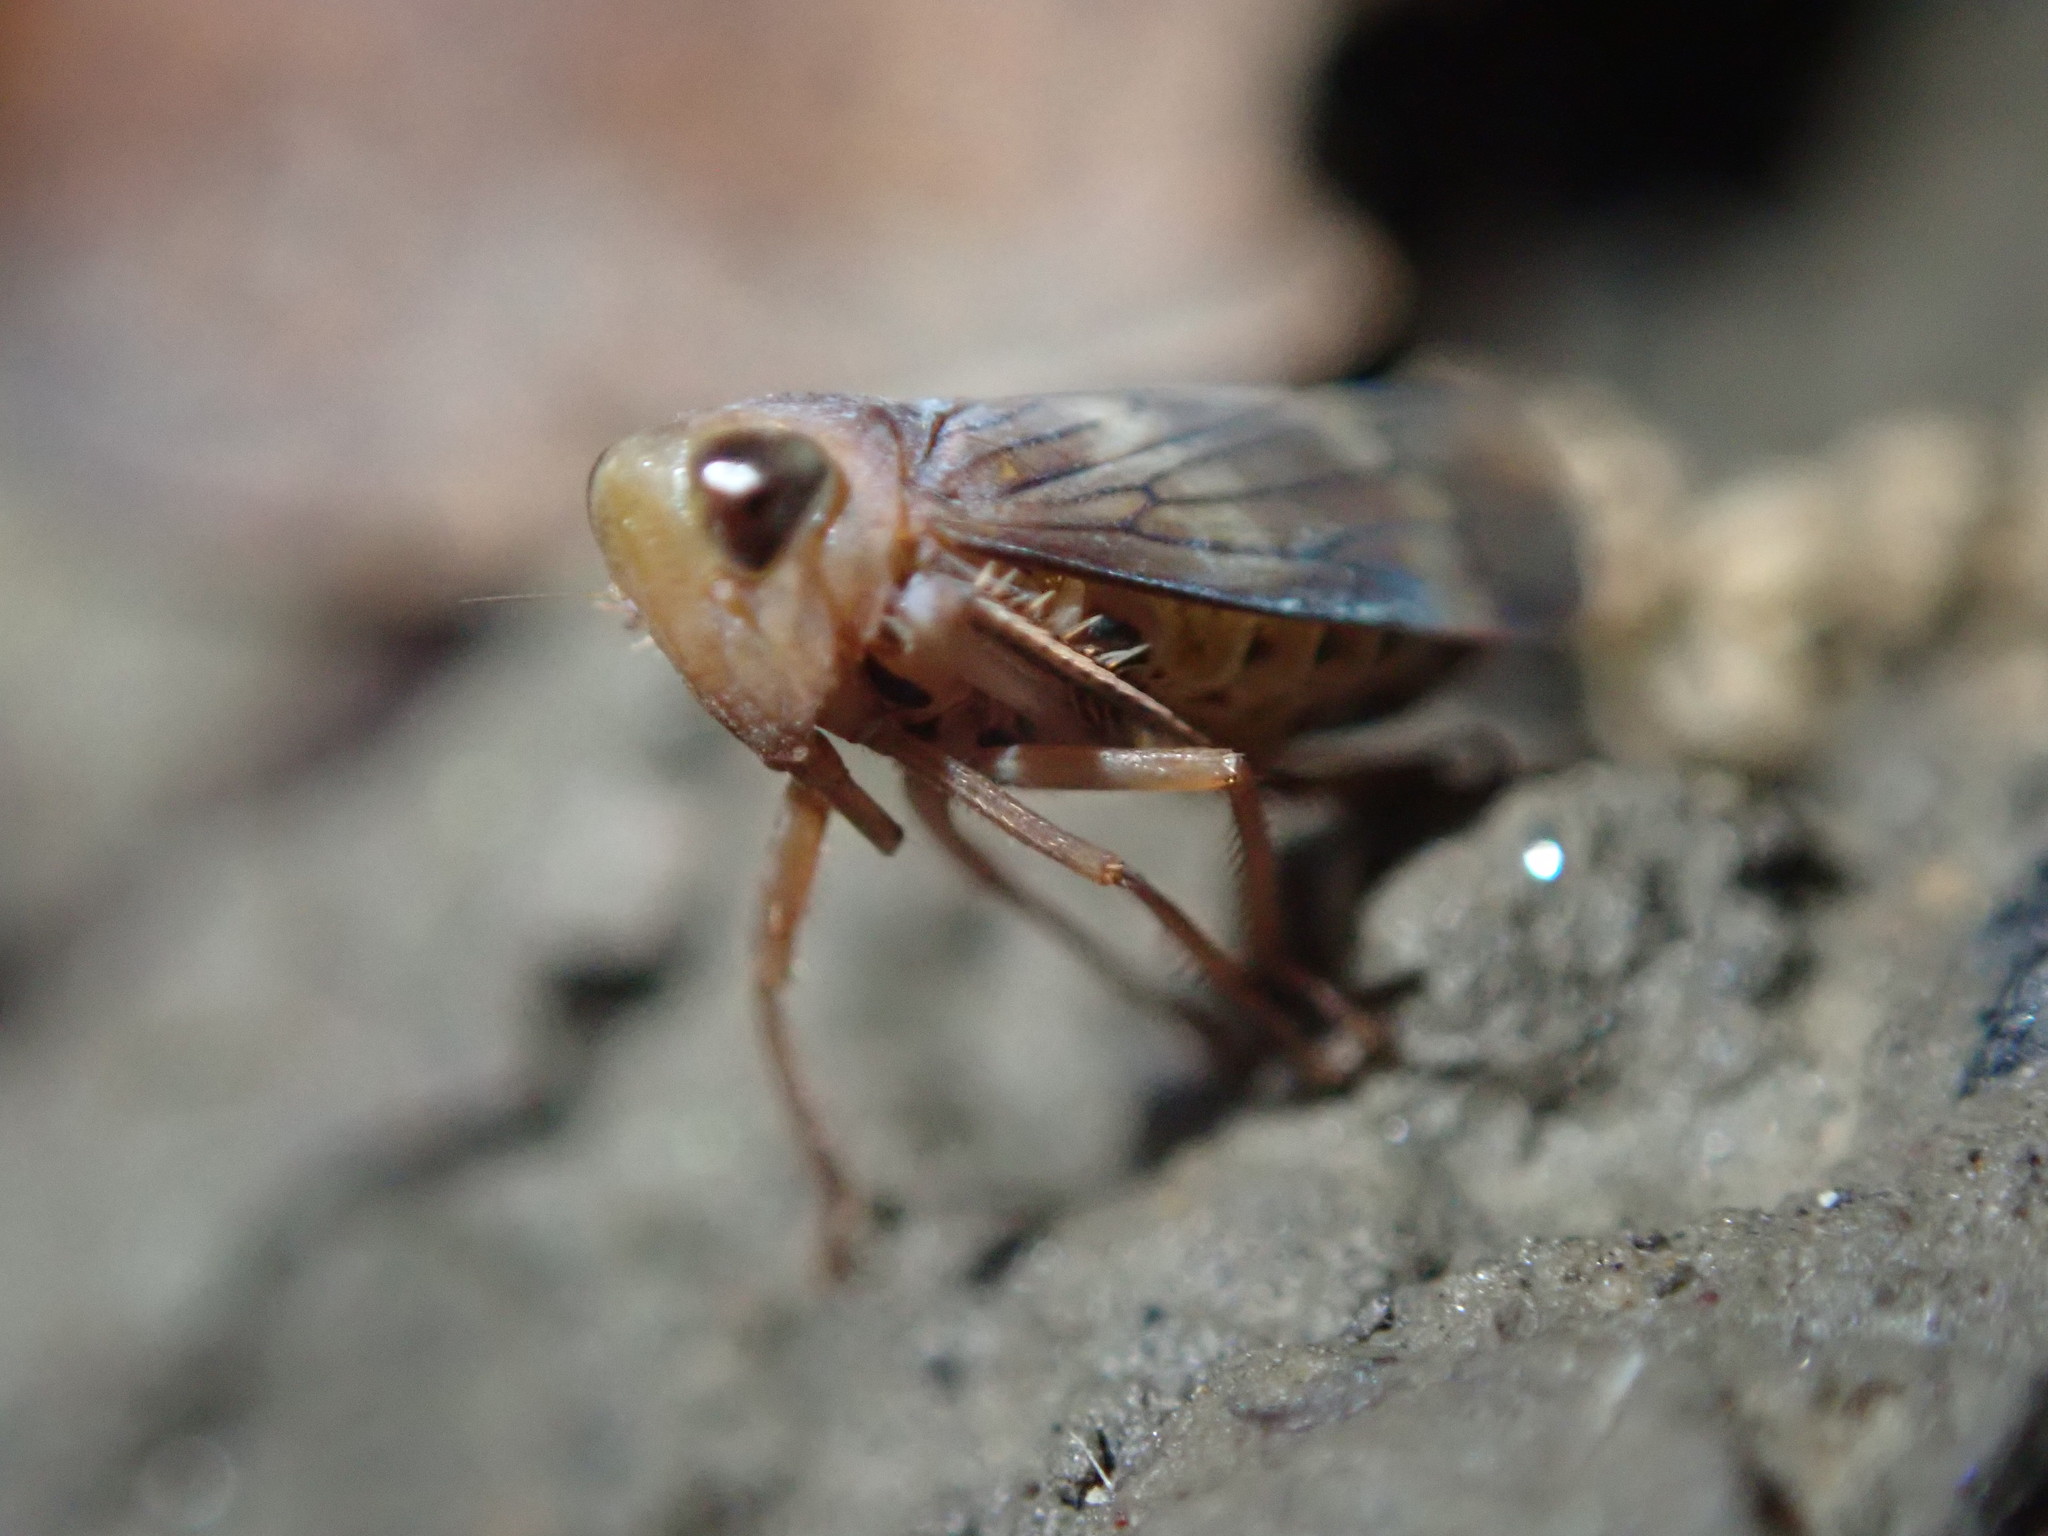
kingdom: Animalia
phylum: Arthropoda
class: Insecta
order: Hemiptera
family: Cicadellidae
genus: Jikradia
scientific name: Jikradia olitoria
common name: Coppery leafhopper
